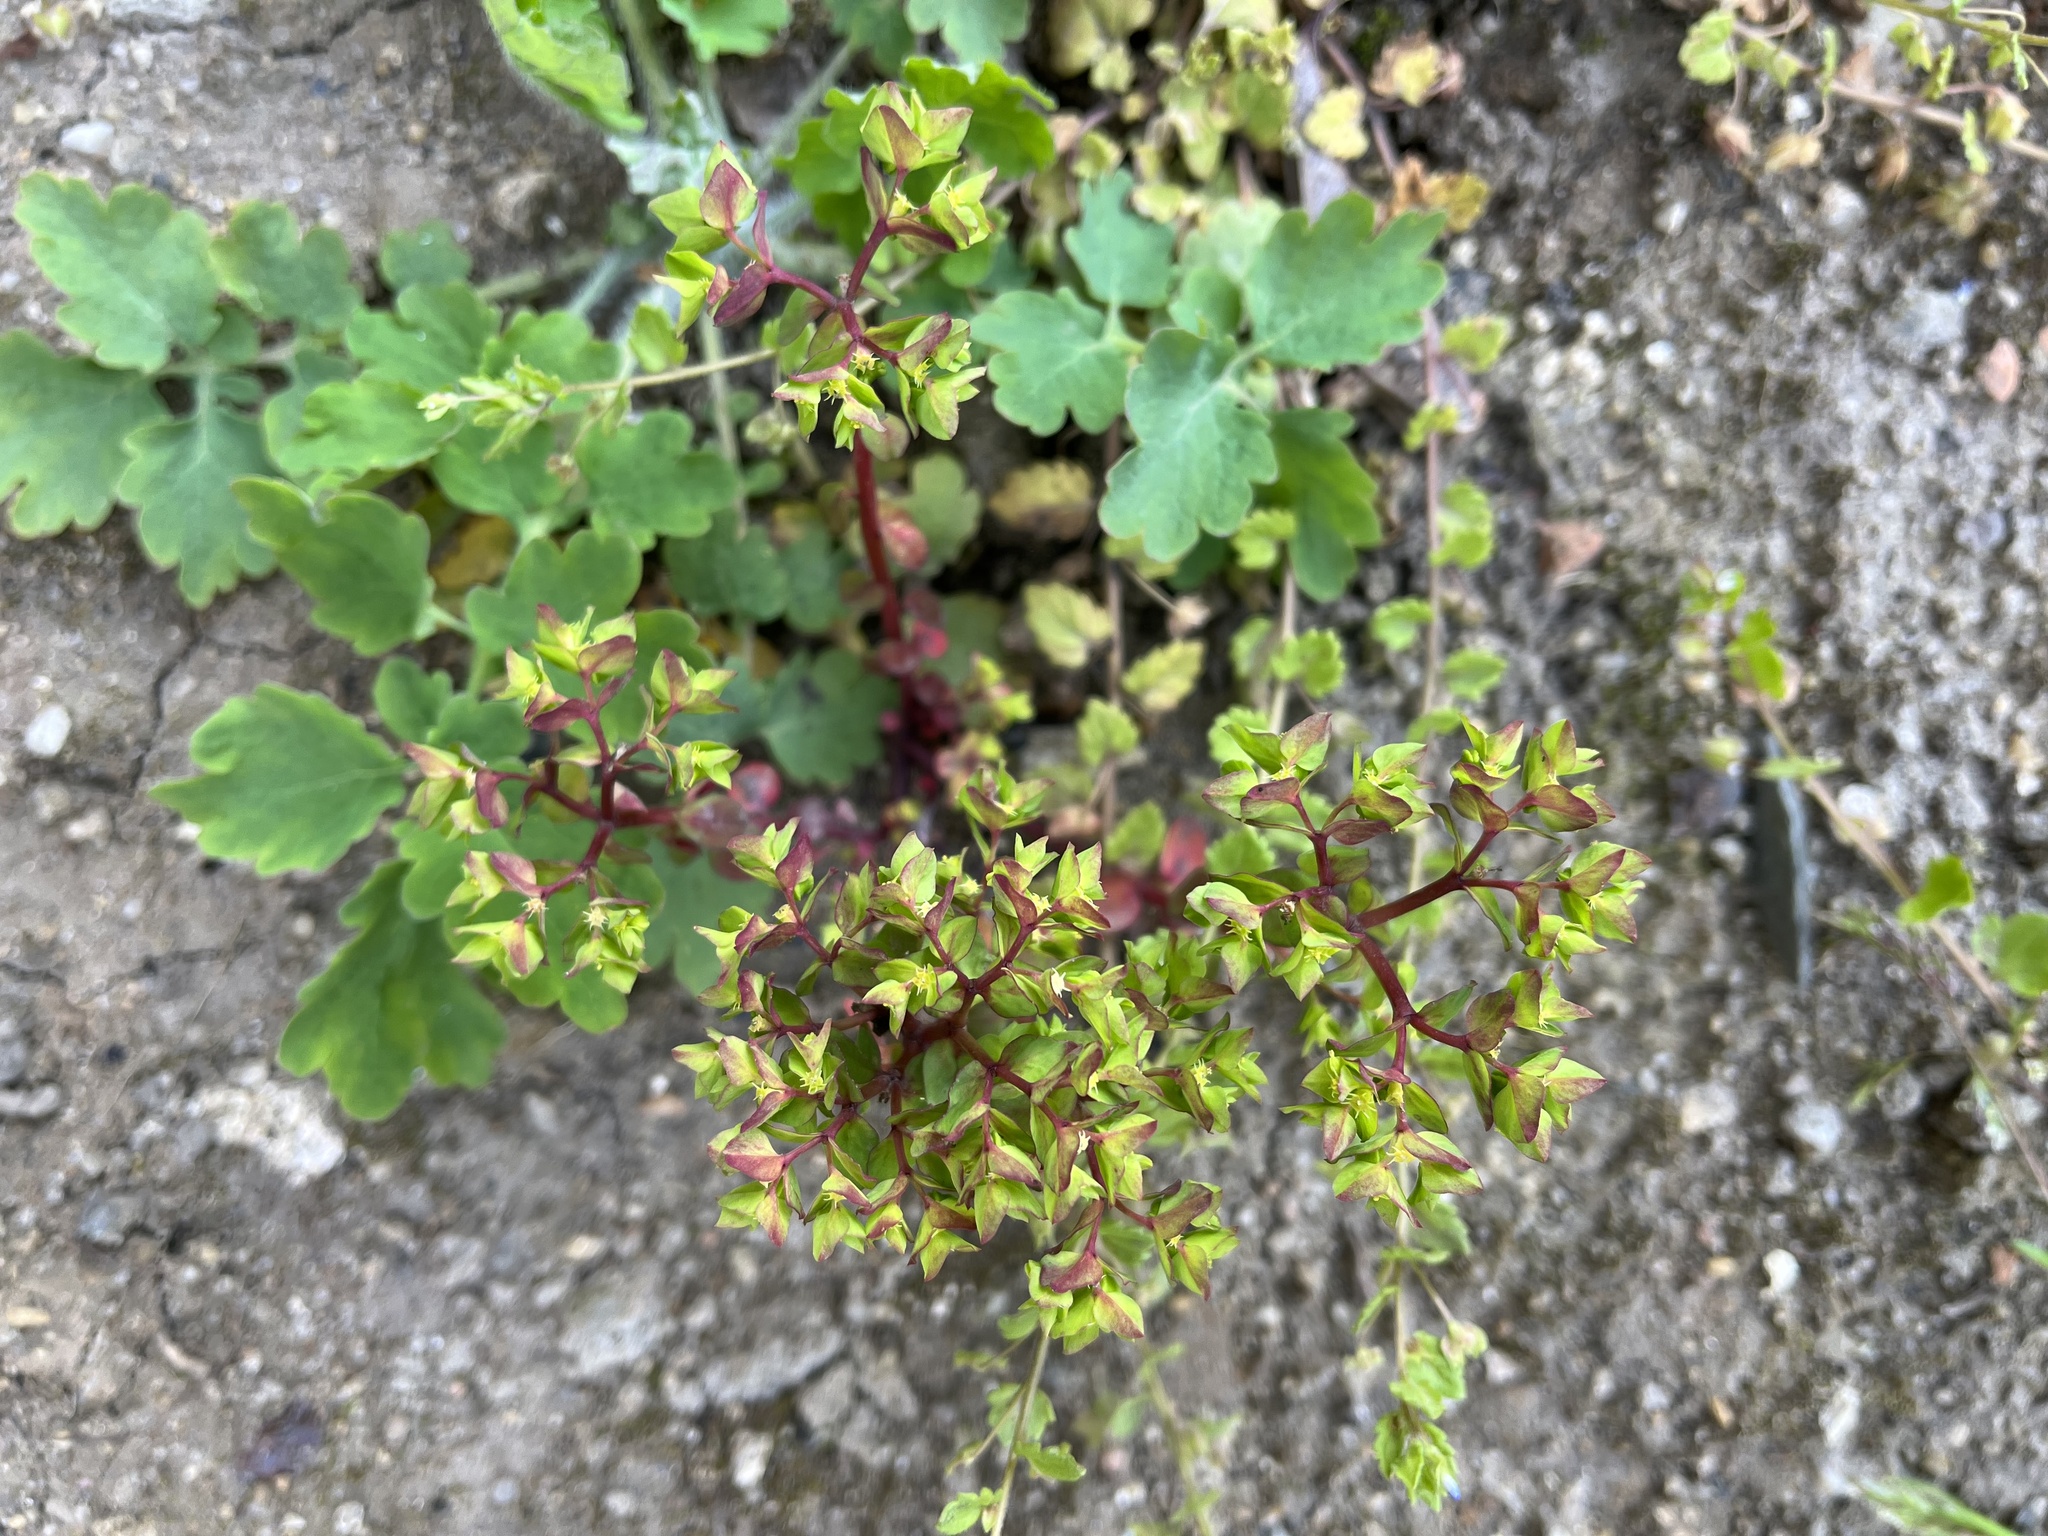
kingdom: Plantae
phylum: Tracheophyta
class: Magnoliopsida
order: Malpighiales
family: Euphorbiaceae
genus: Euphorbia
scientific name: Euphorbia peplus
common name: Petty spurge
